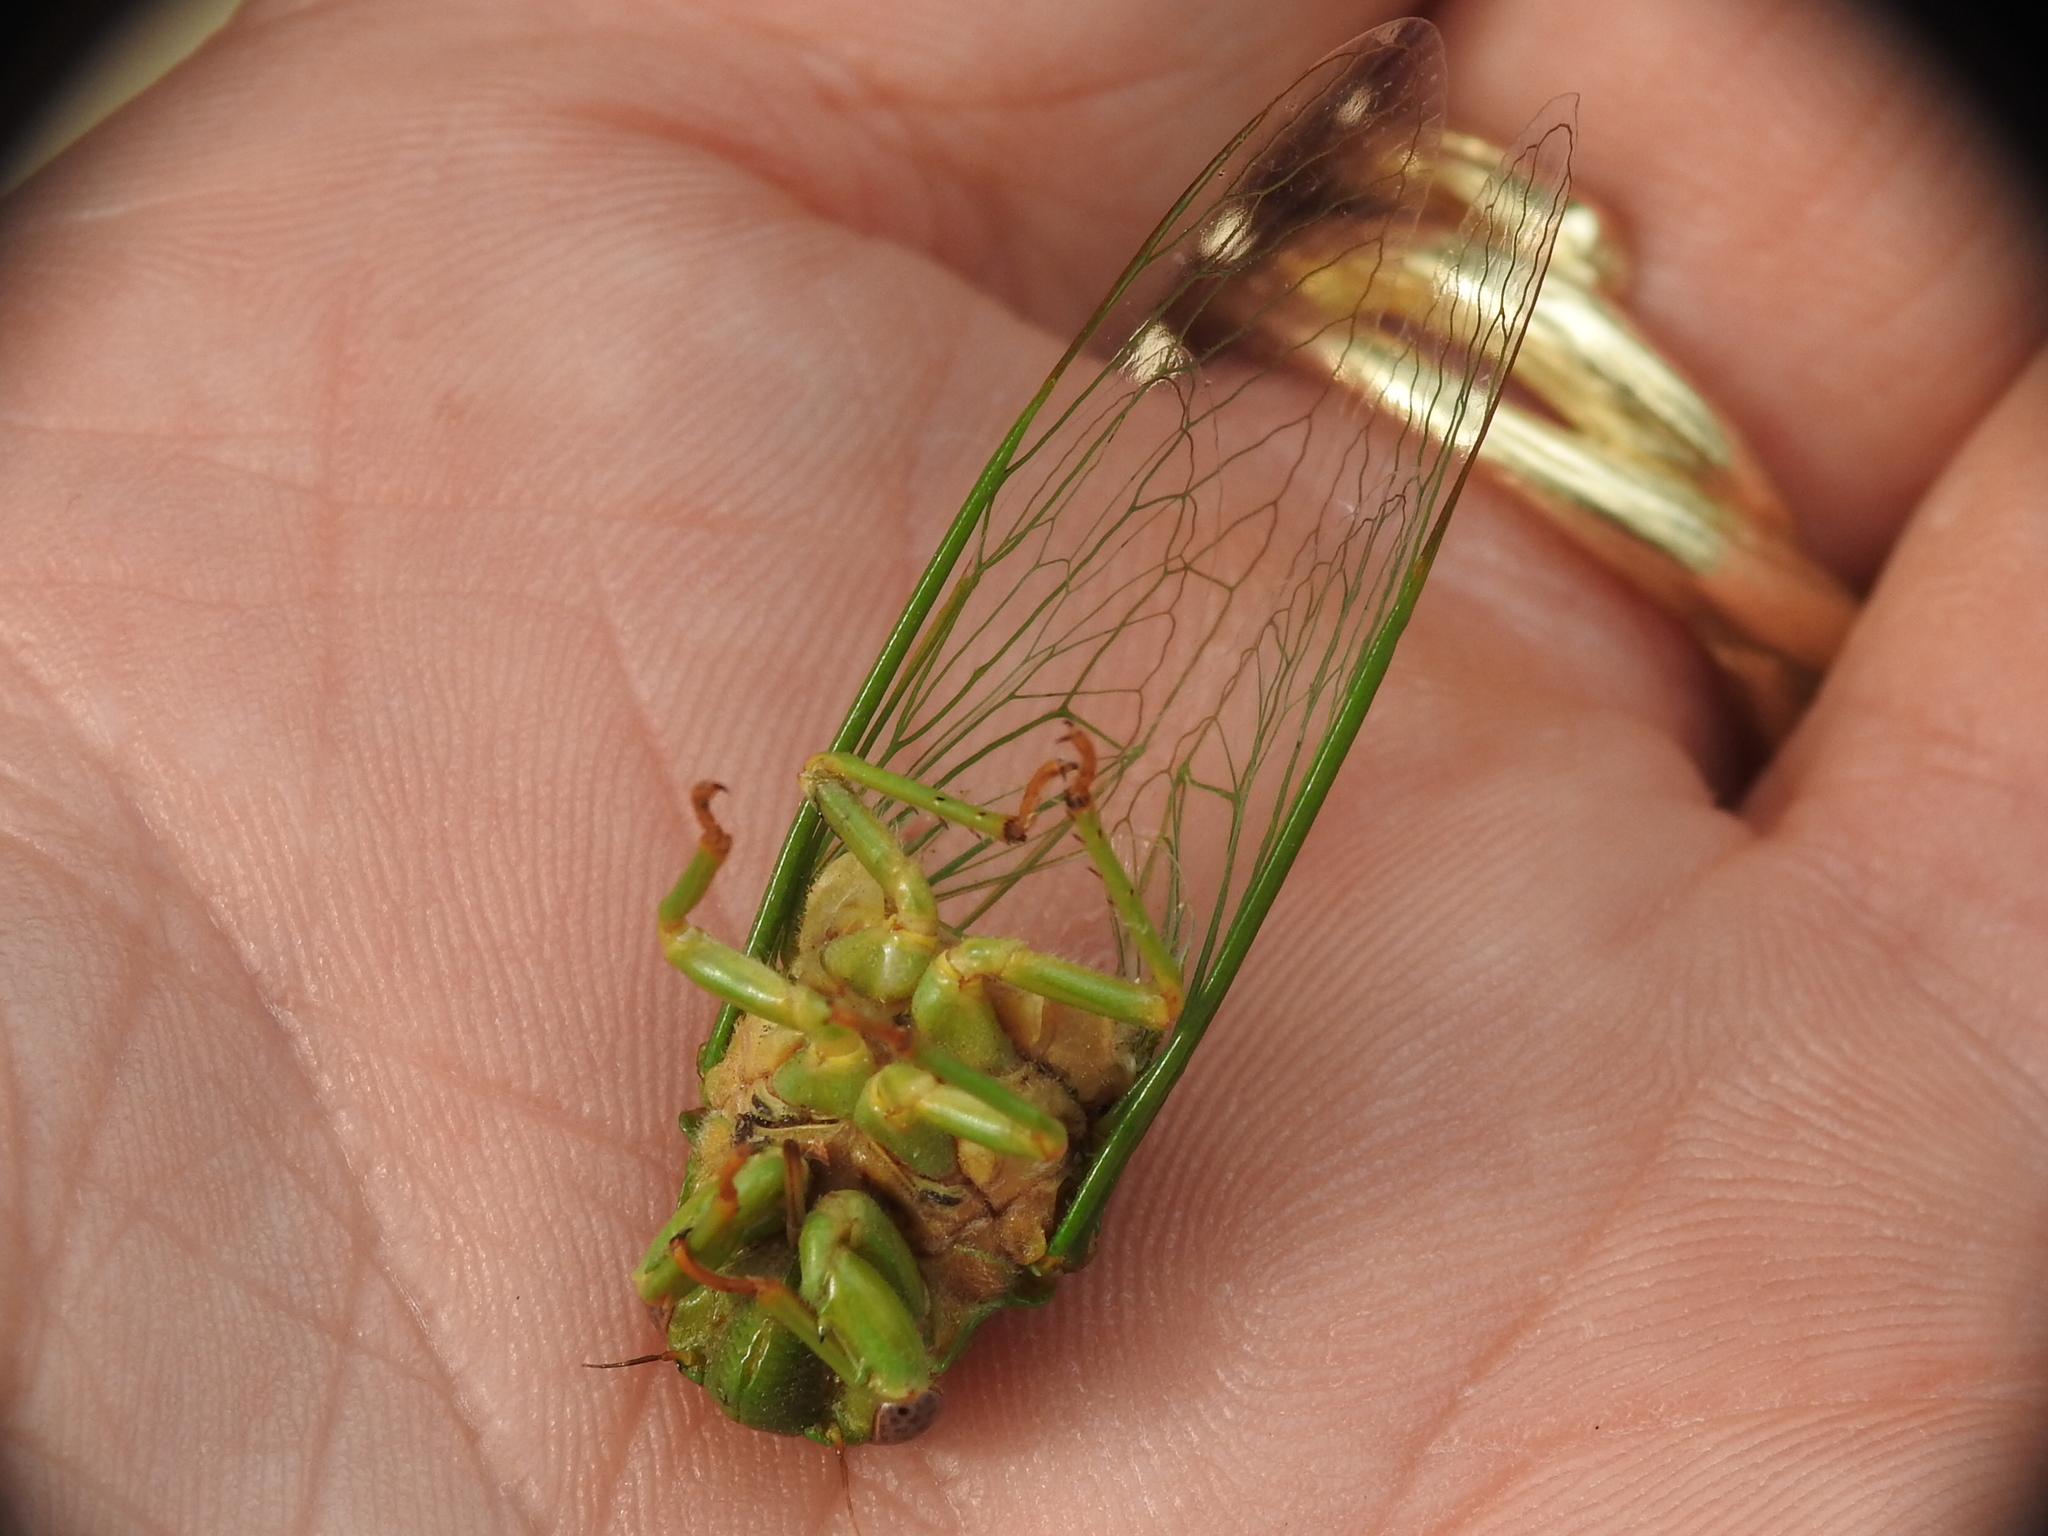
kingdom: Animalia
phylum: Arthropoda
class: Insecta
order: Hemiptera
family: Cicadidae
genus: Glaucopsaltria
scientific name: Glaucopsaltria viridis
